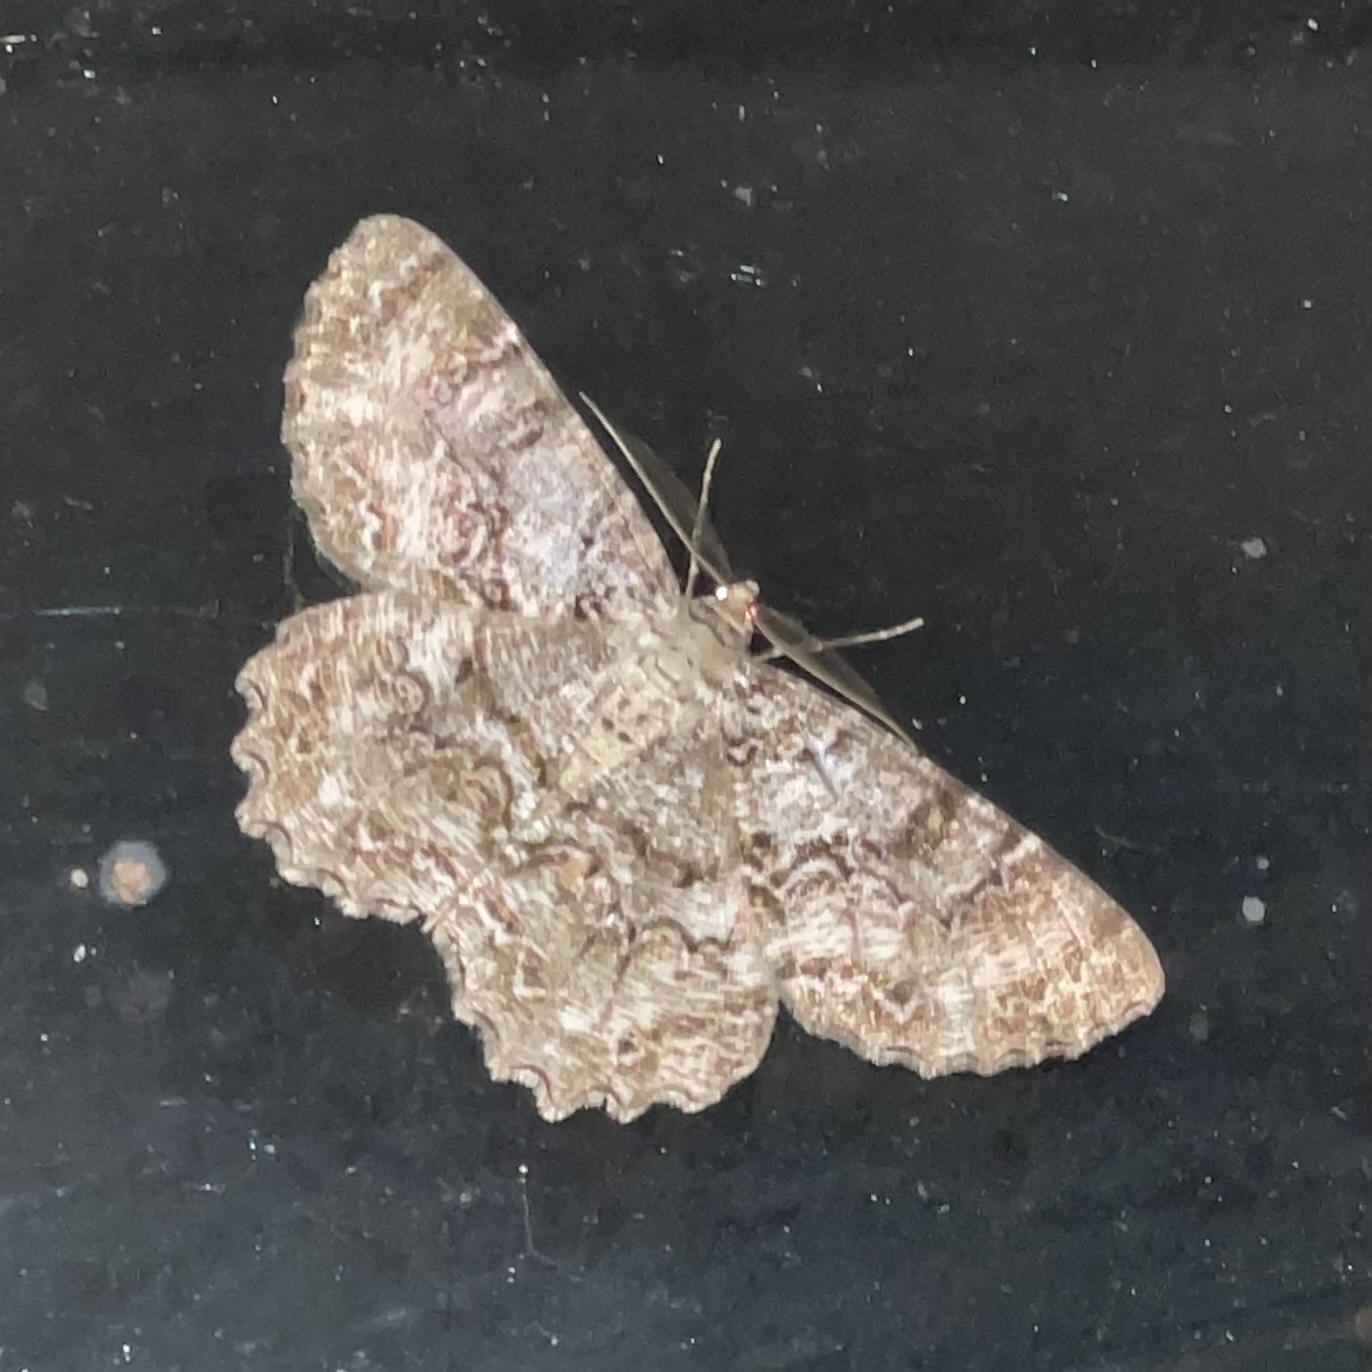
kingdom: Animalia
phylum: Arthropoda
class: Insecta
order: Lepidoptera
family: Geometridae
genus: Epimecis
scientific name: Epimecis hortaria
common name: Tulip-tree beauty
